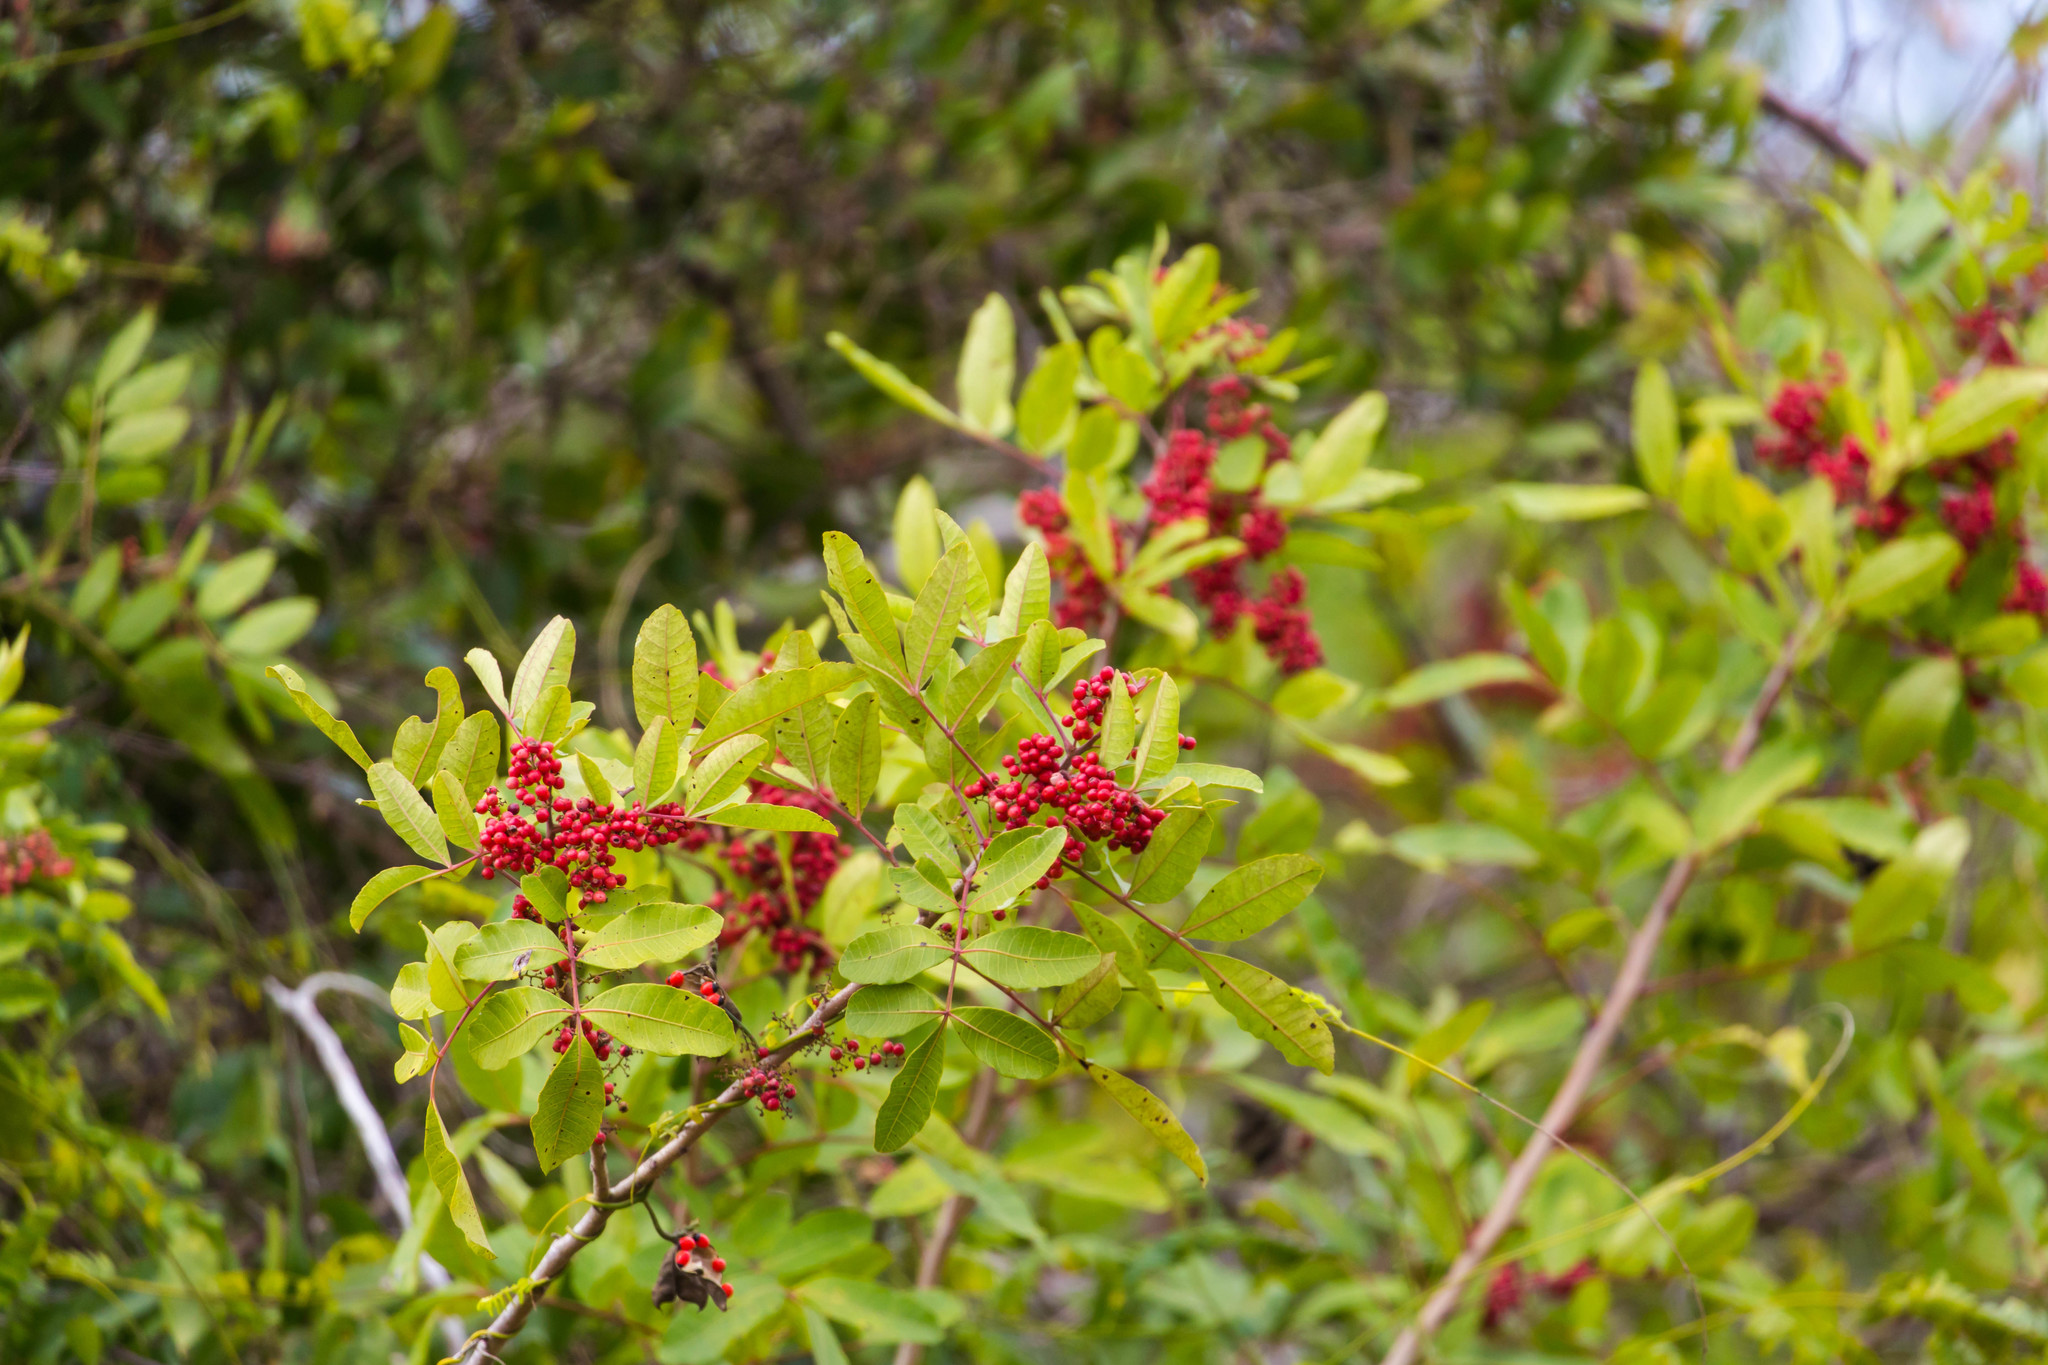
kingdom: Plantae
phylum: Tracheophyta
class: Magnoliopsida
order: Sapindales
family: Anacardiaceae
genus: Schinus
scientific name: Schinus terebinthifolia
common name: Brazilian peppertree
